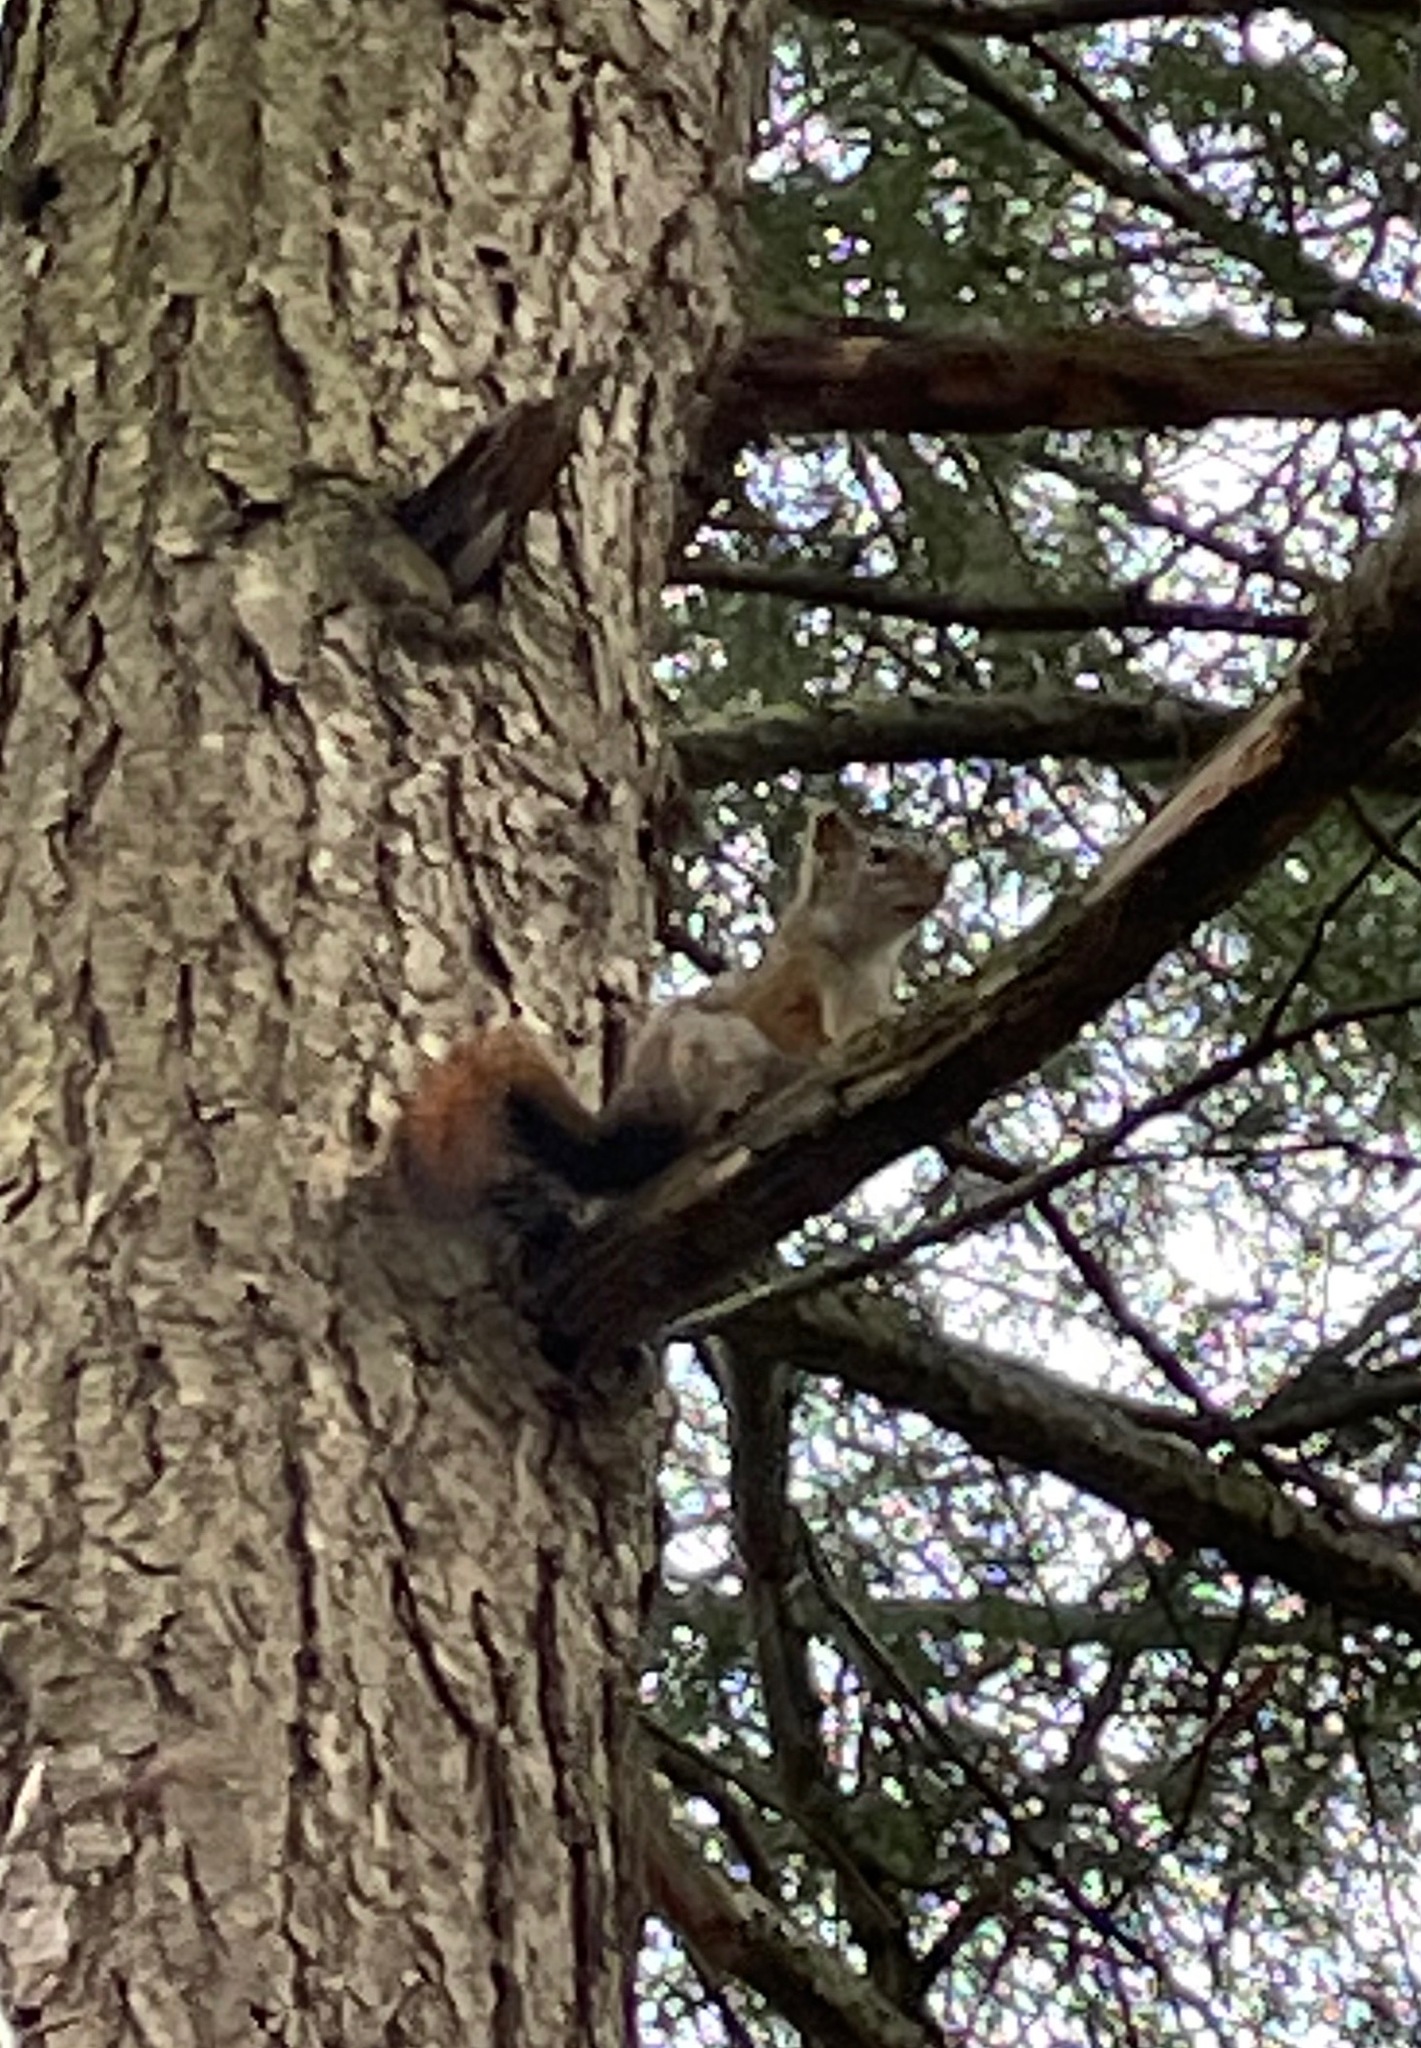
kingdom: Animalia
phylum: Chordata
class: Mammalia
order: Rodentia
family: Sciuridae
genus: Tamiasciurus
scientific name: Tamiasciurus hudsonicus
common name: Red squirrel
